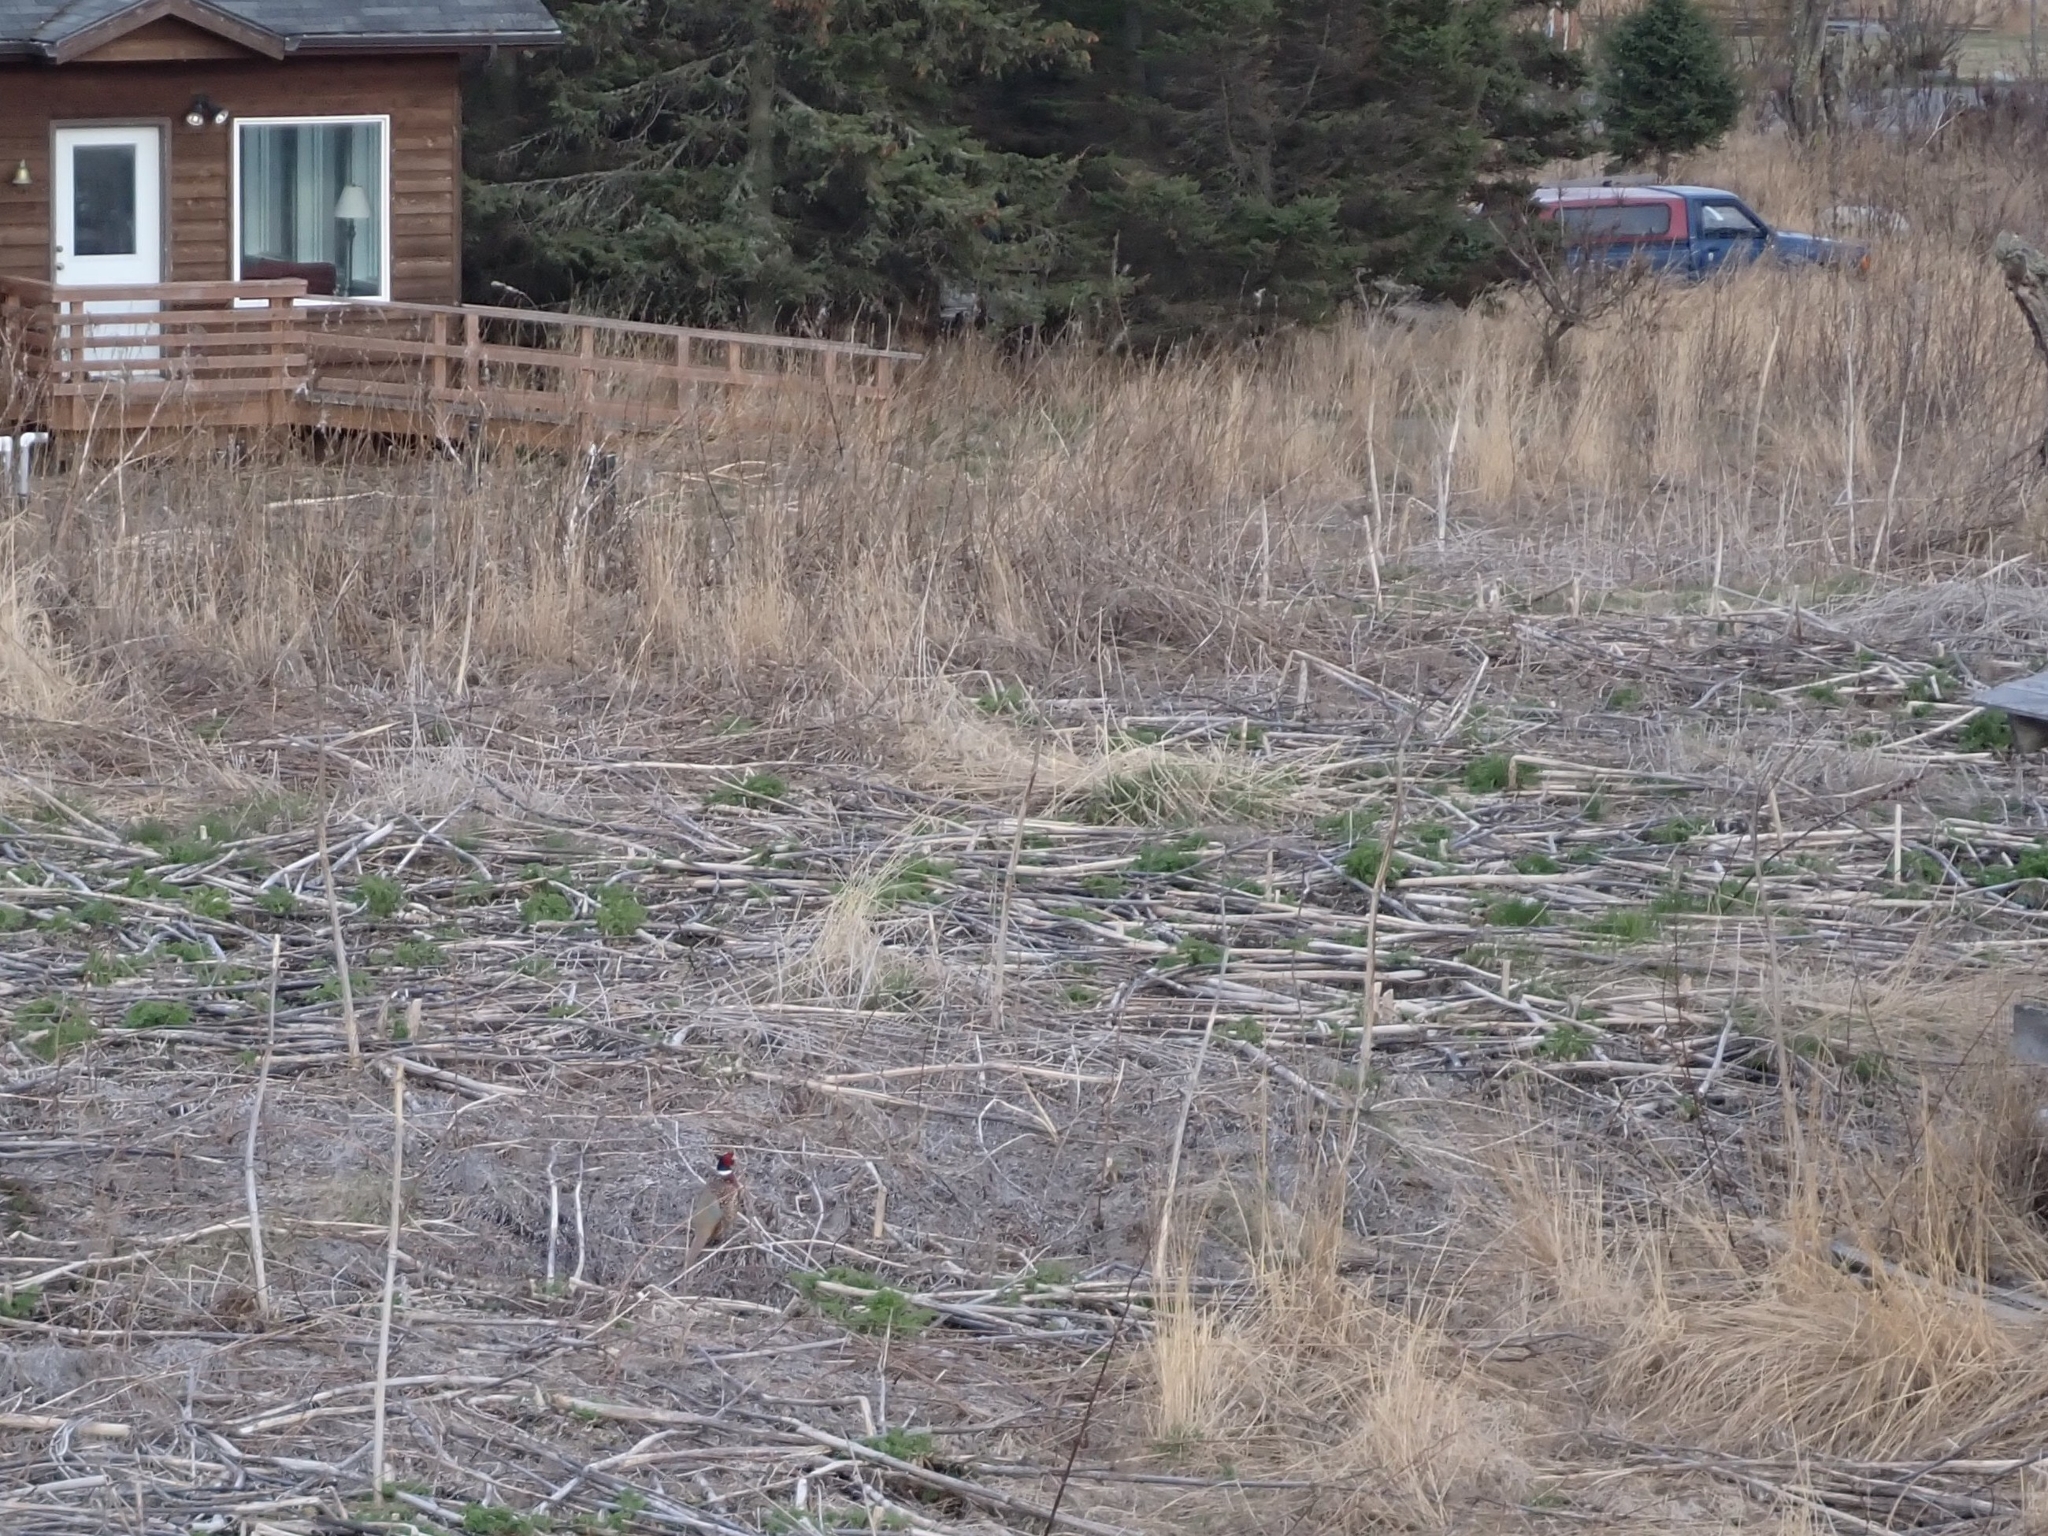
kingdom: Animalia
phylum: Chordata
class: Aves
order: Galliformes
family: Phasianidae
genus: Phasianus
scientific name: Phasianus colchicus
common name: Common pheasant
